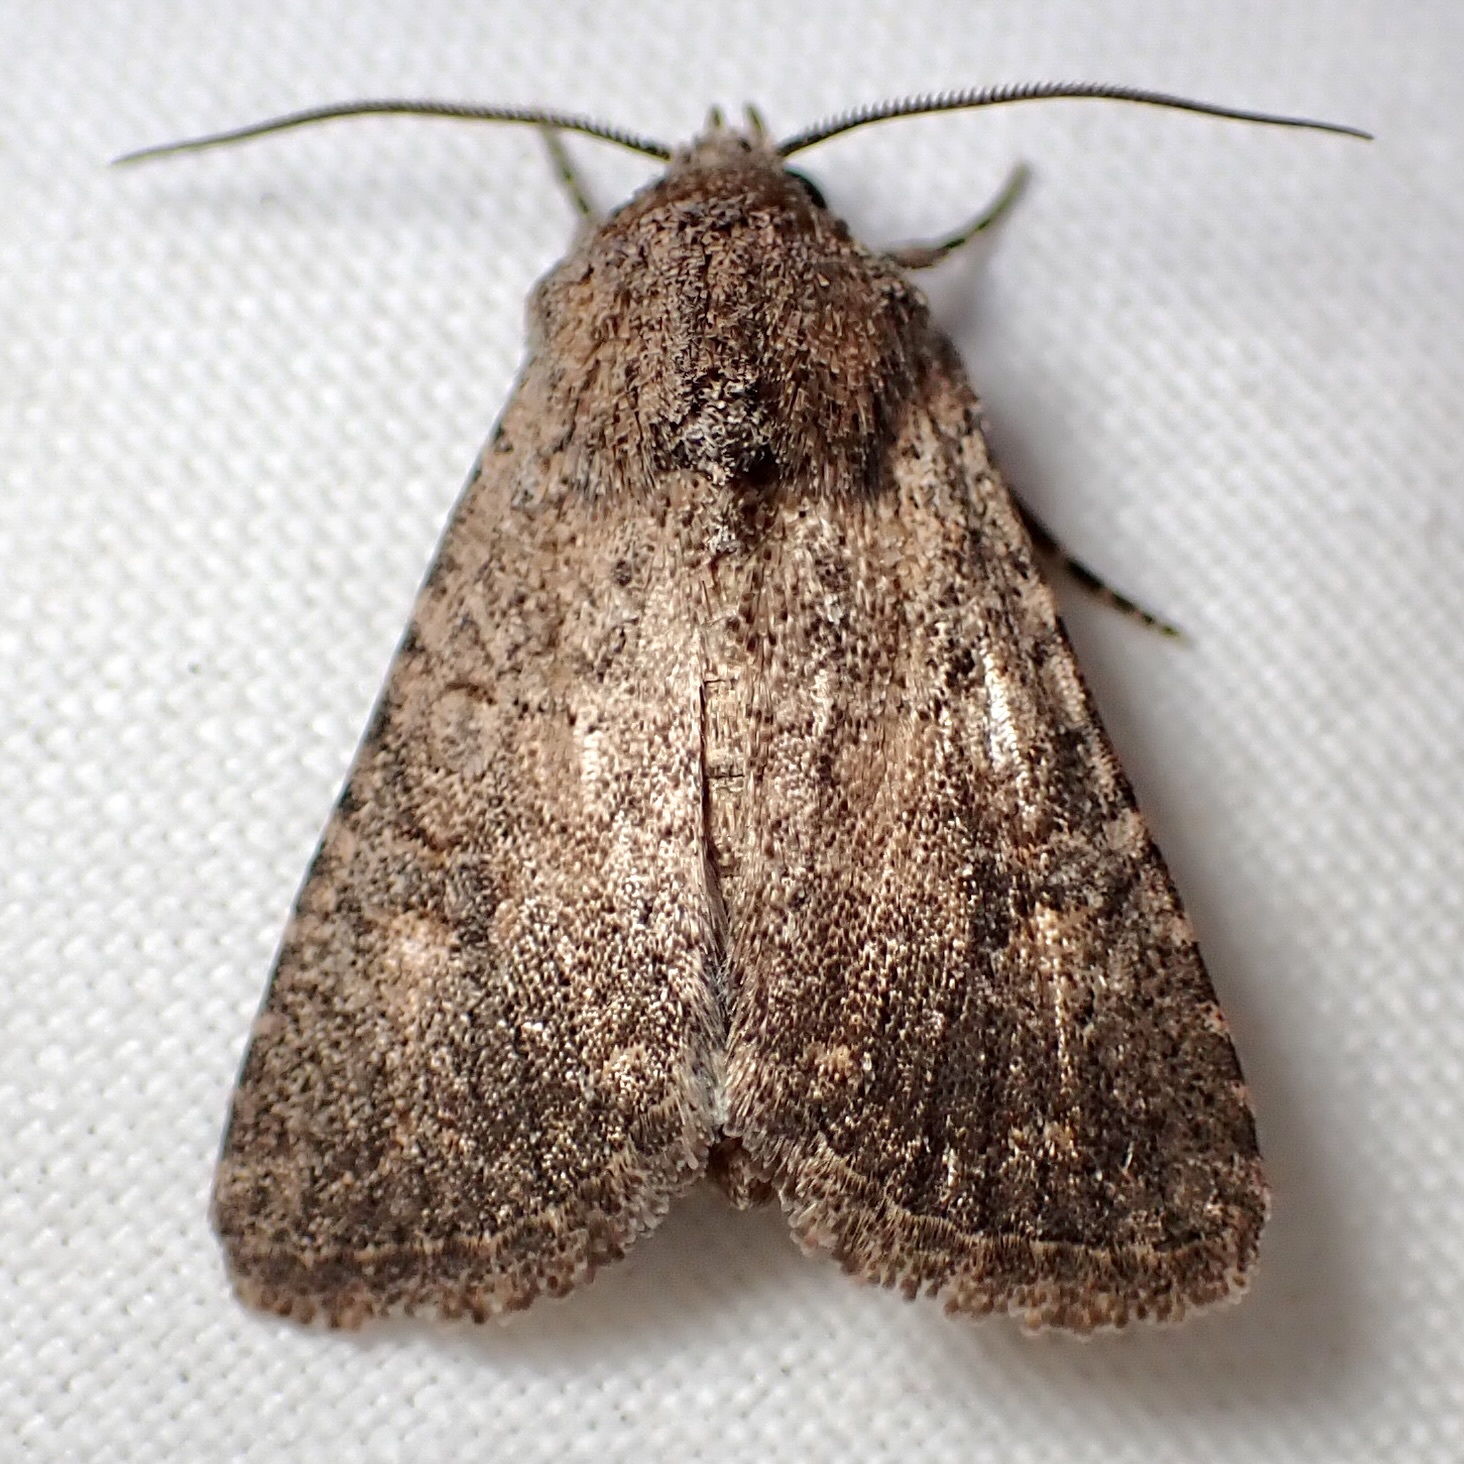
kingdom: Animalia
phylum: Arthropoda
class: Insecta
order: Lepidoptera
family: Noctuidae
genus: Trichopolia
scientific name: Trichopolia
